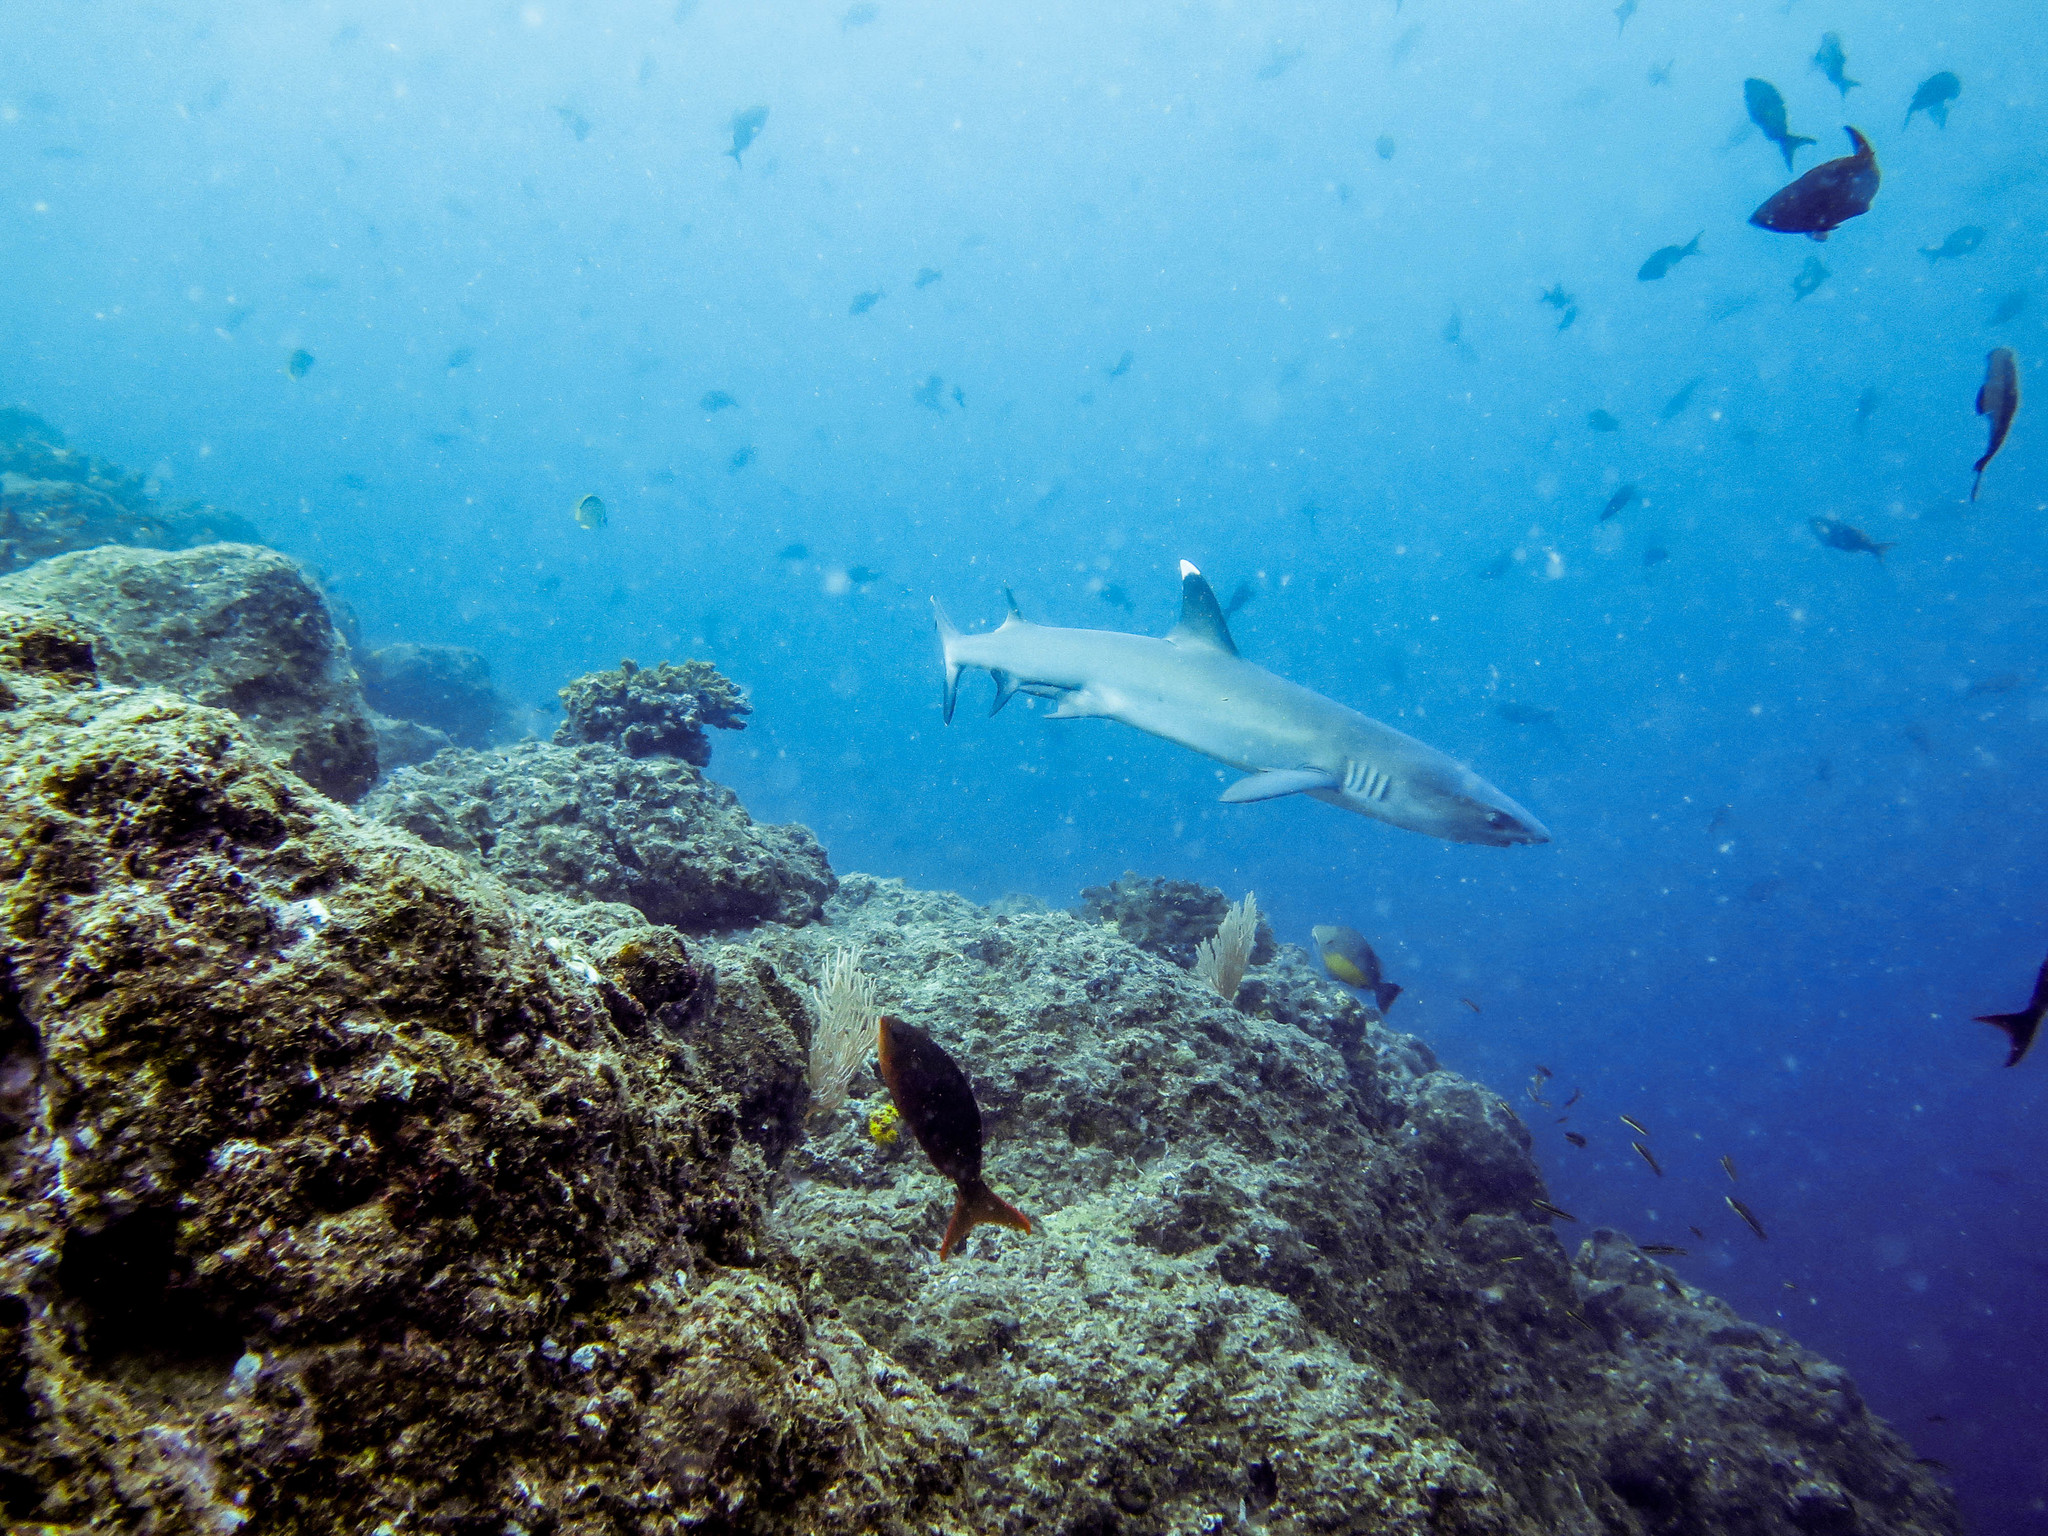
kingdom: Animalia
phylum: Chordata
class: Elasmobranchii
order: Carcharhiniformes
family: Carcharhinidae
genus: Triaenodon
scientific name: Triaenodon obesus
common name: Whitetip reef shark
